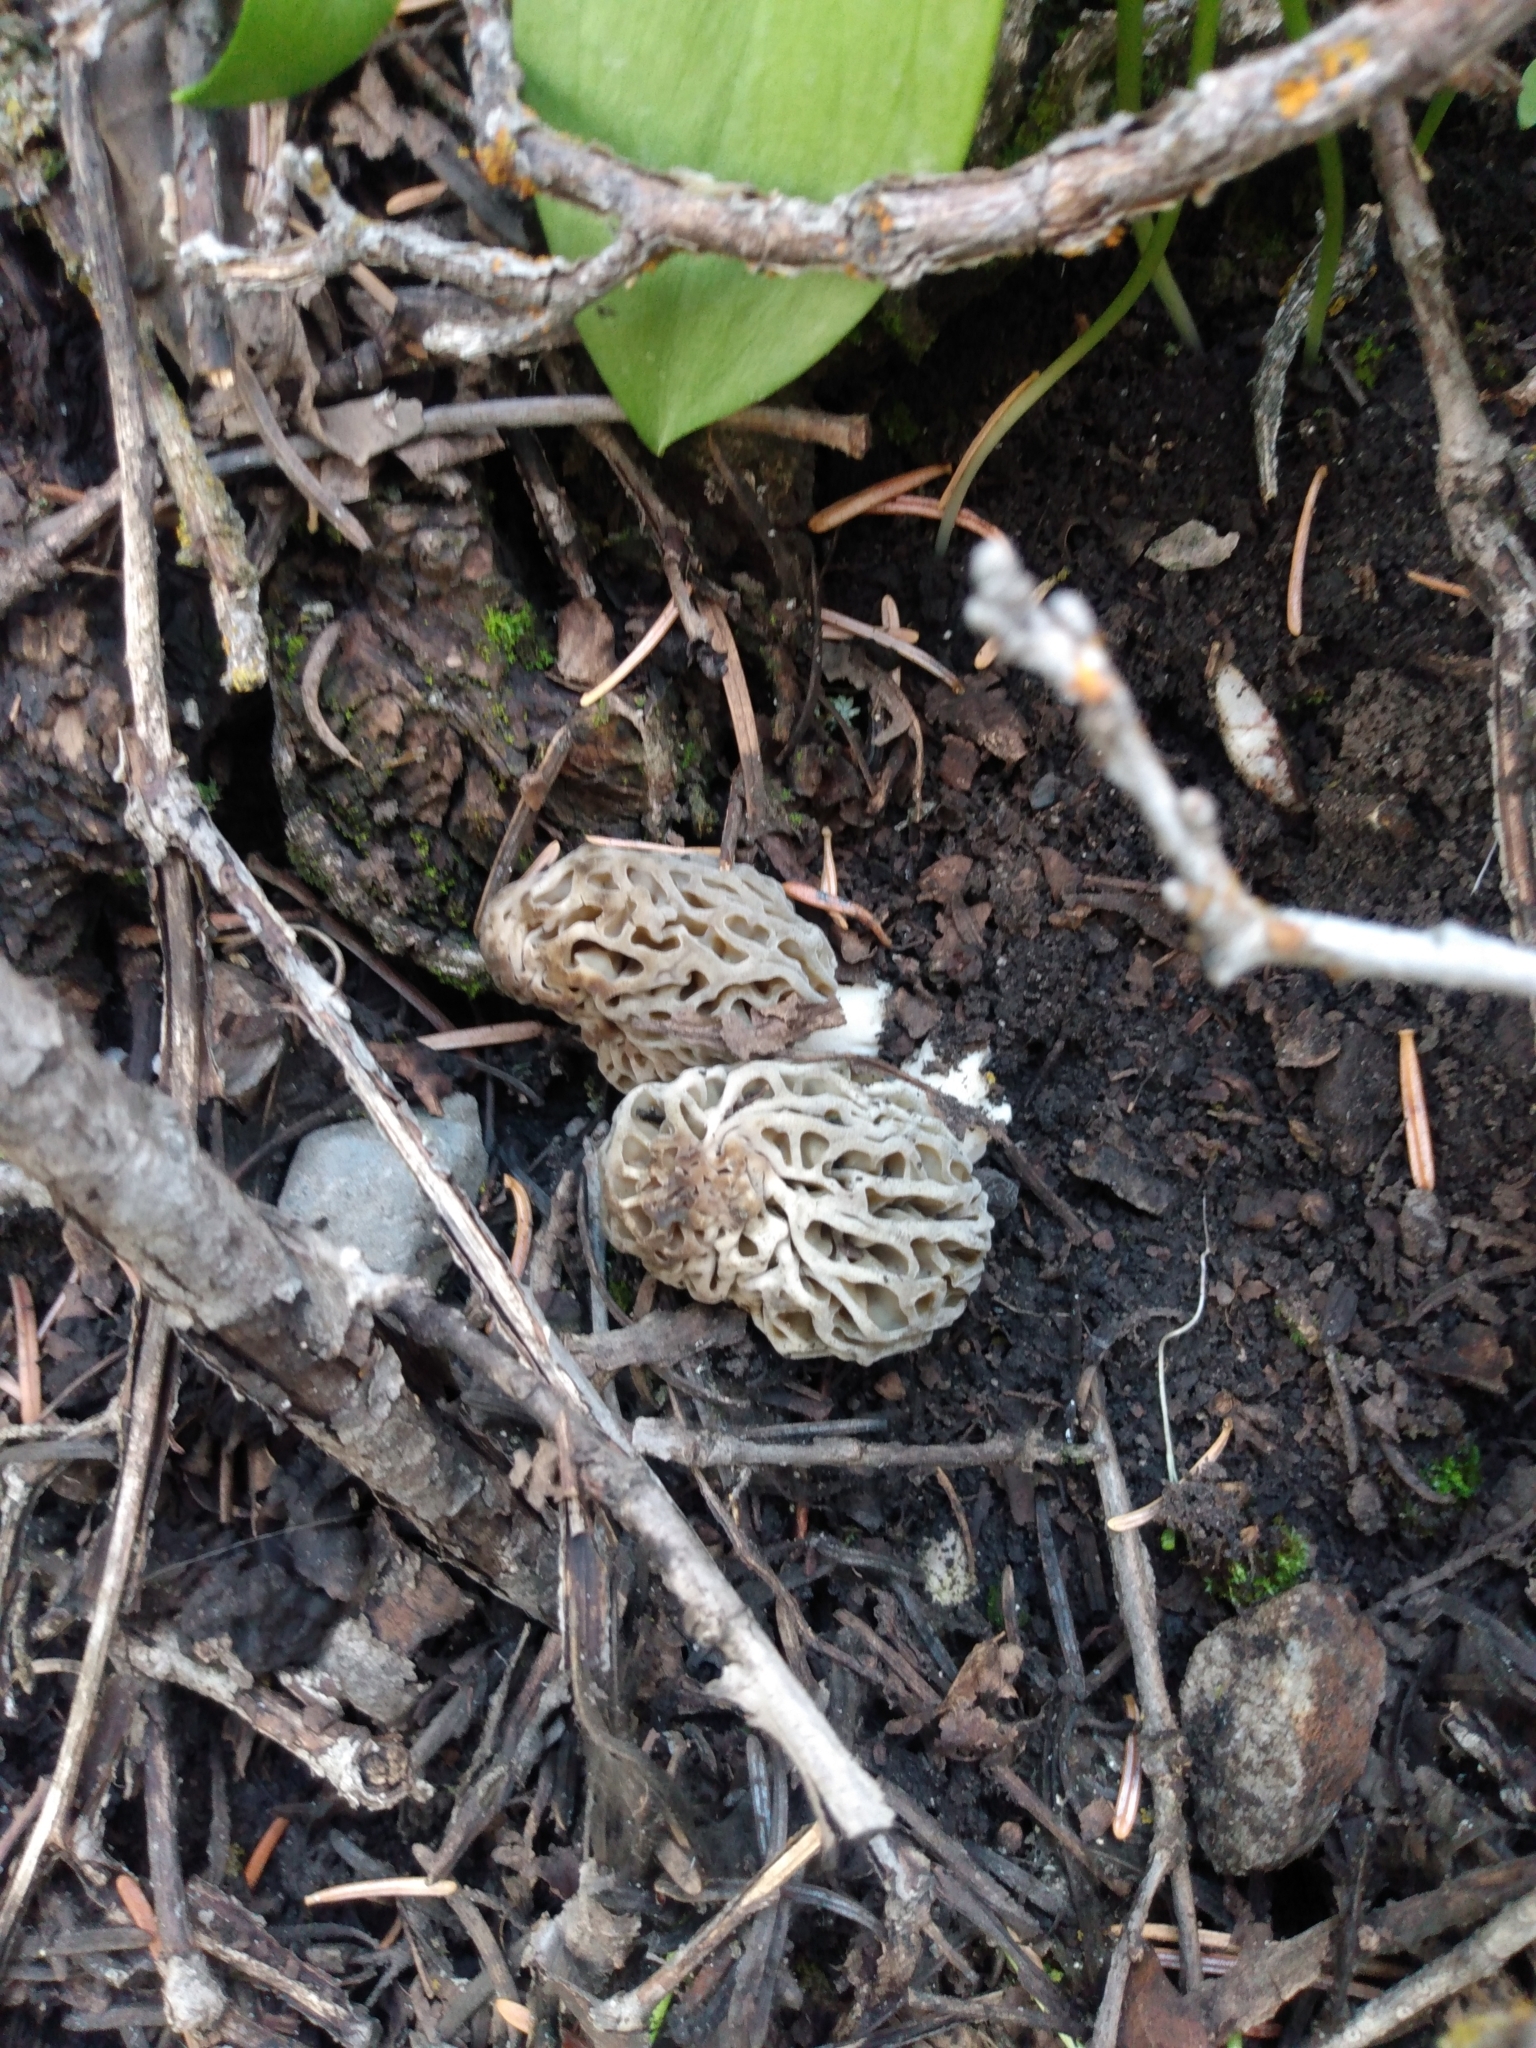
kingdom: Fungi
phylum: Ascomycota
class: Pezizomycetes
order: Pezizales
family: Morchellaceae
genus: Morchella
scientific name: Morchella snyderi
